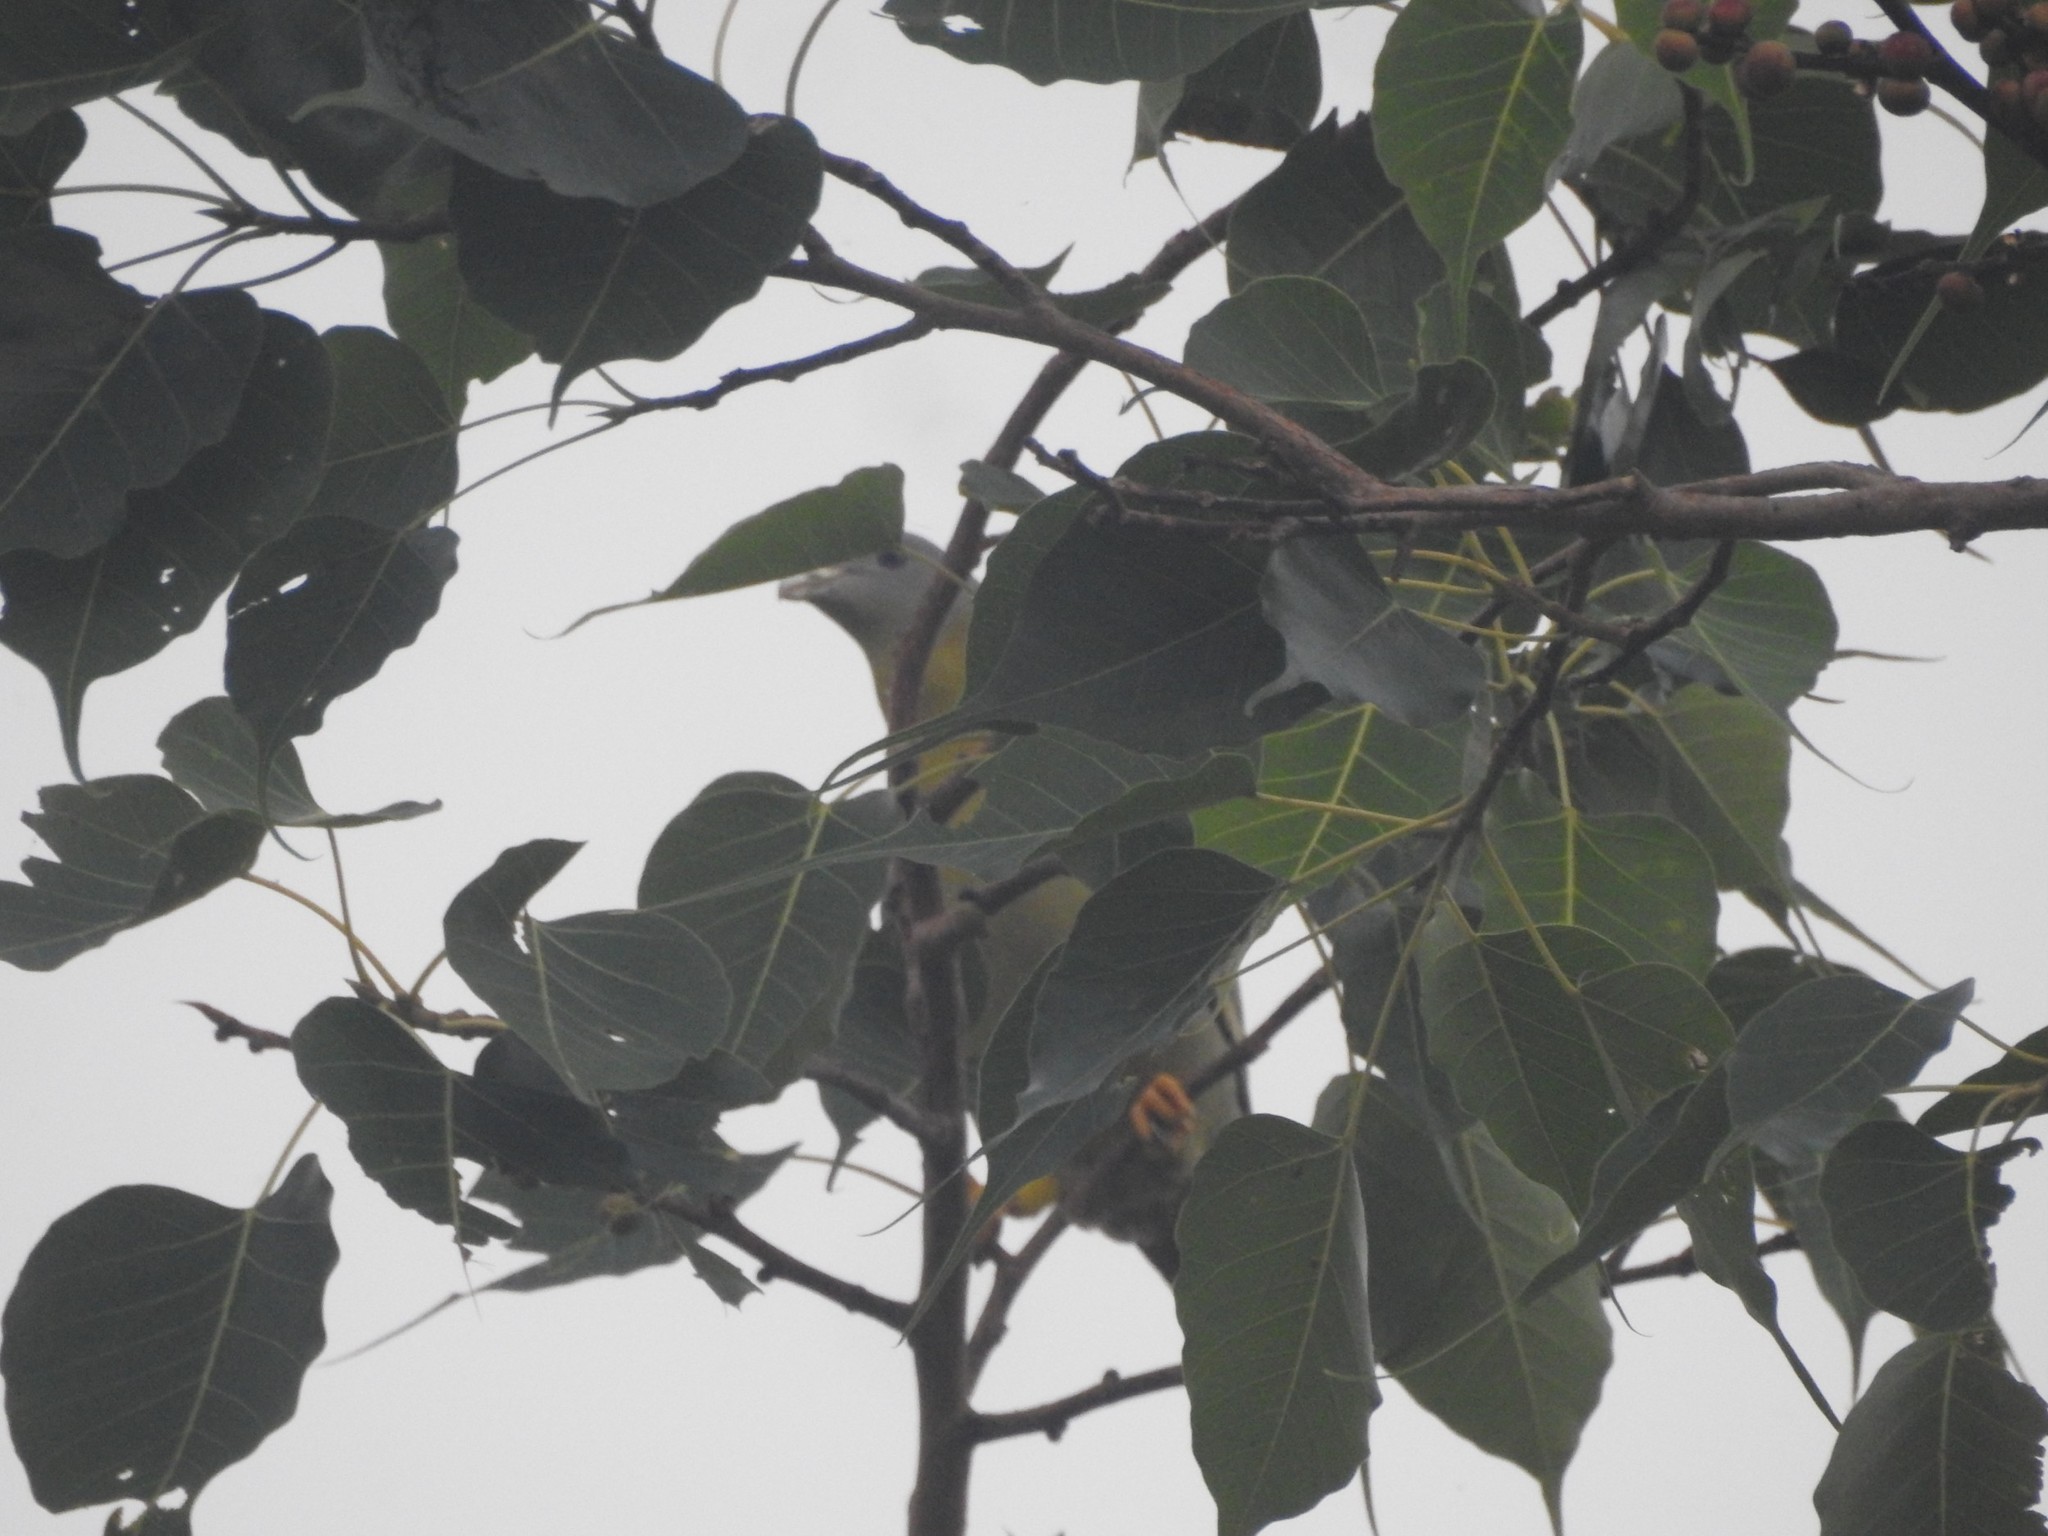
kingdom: Animalia
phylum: Chordata
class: Aves
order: Columbiformes
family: Columbidae
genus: Treron
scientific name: Treron phoenicopterus
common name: Yellow-footed green pigeon
